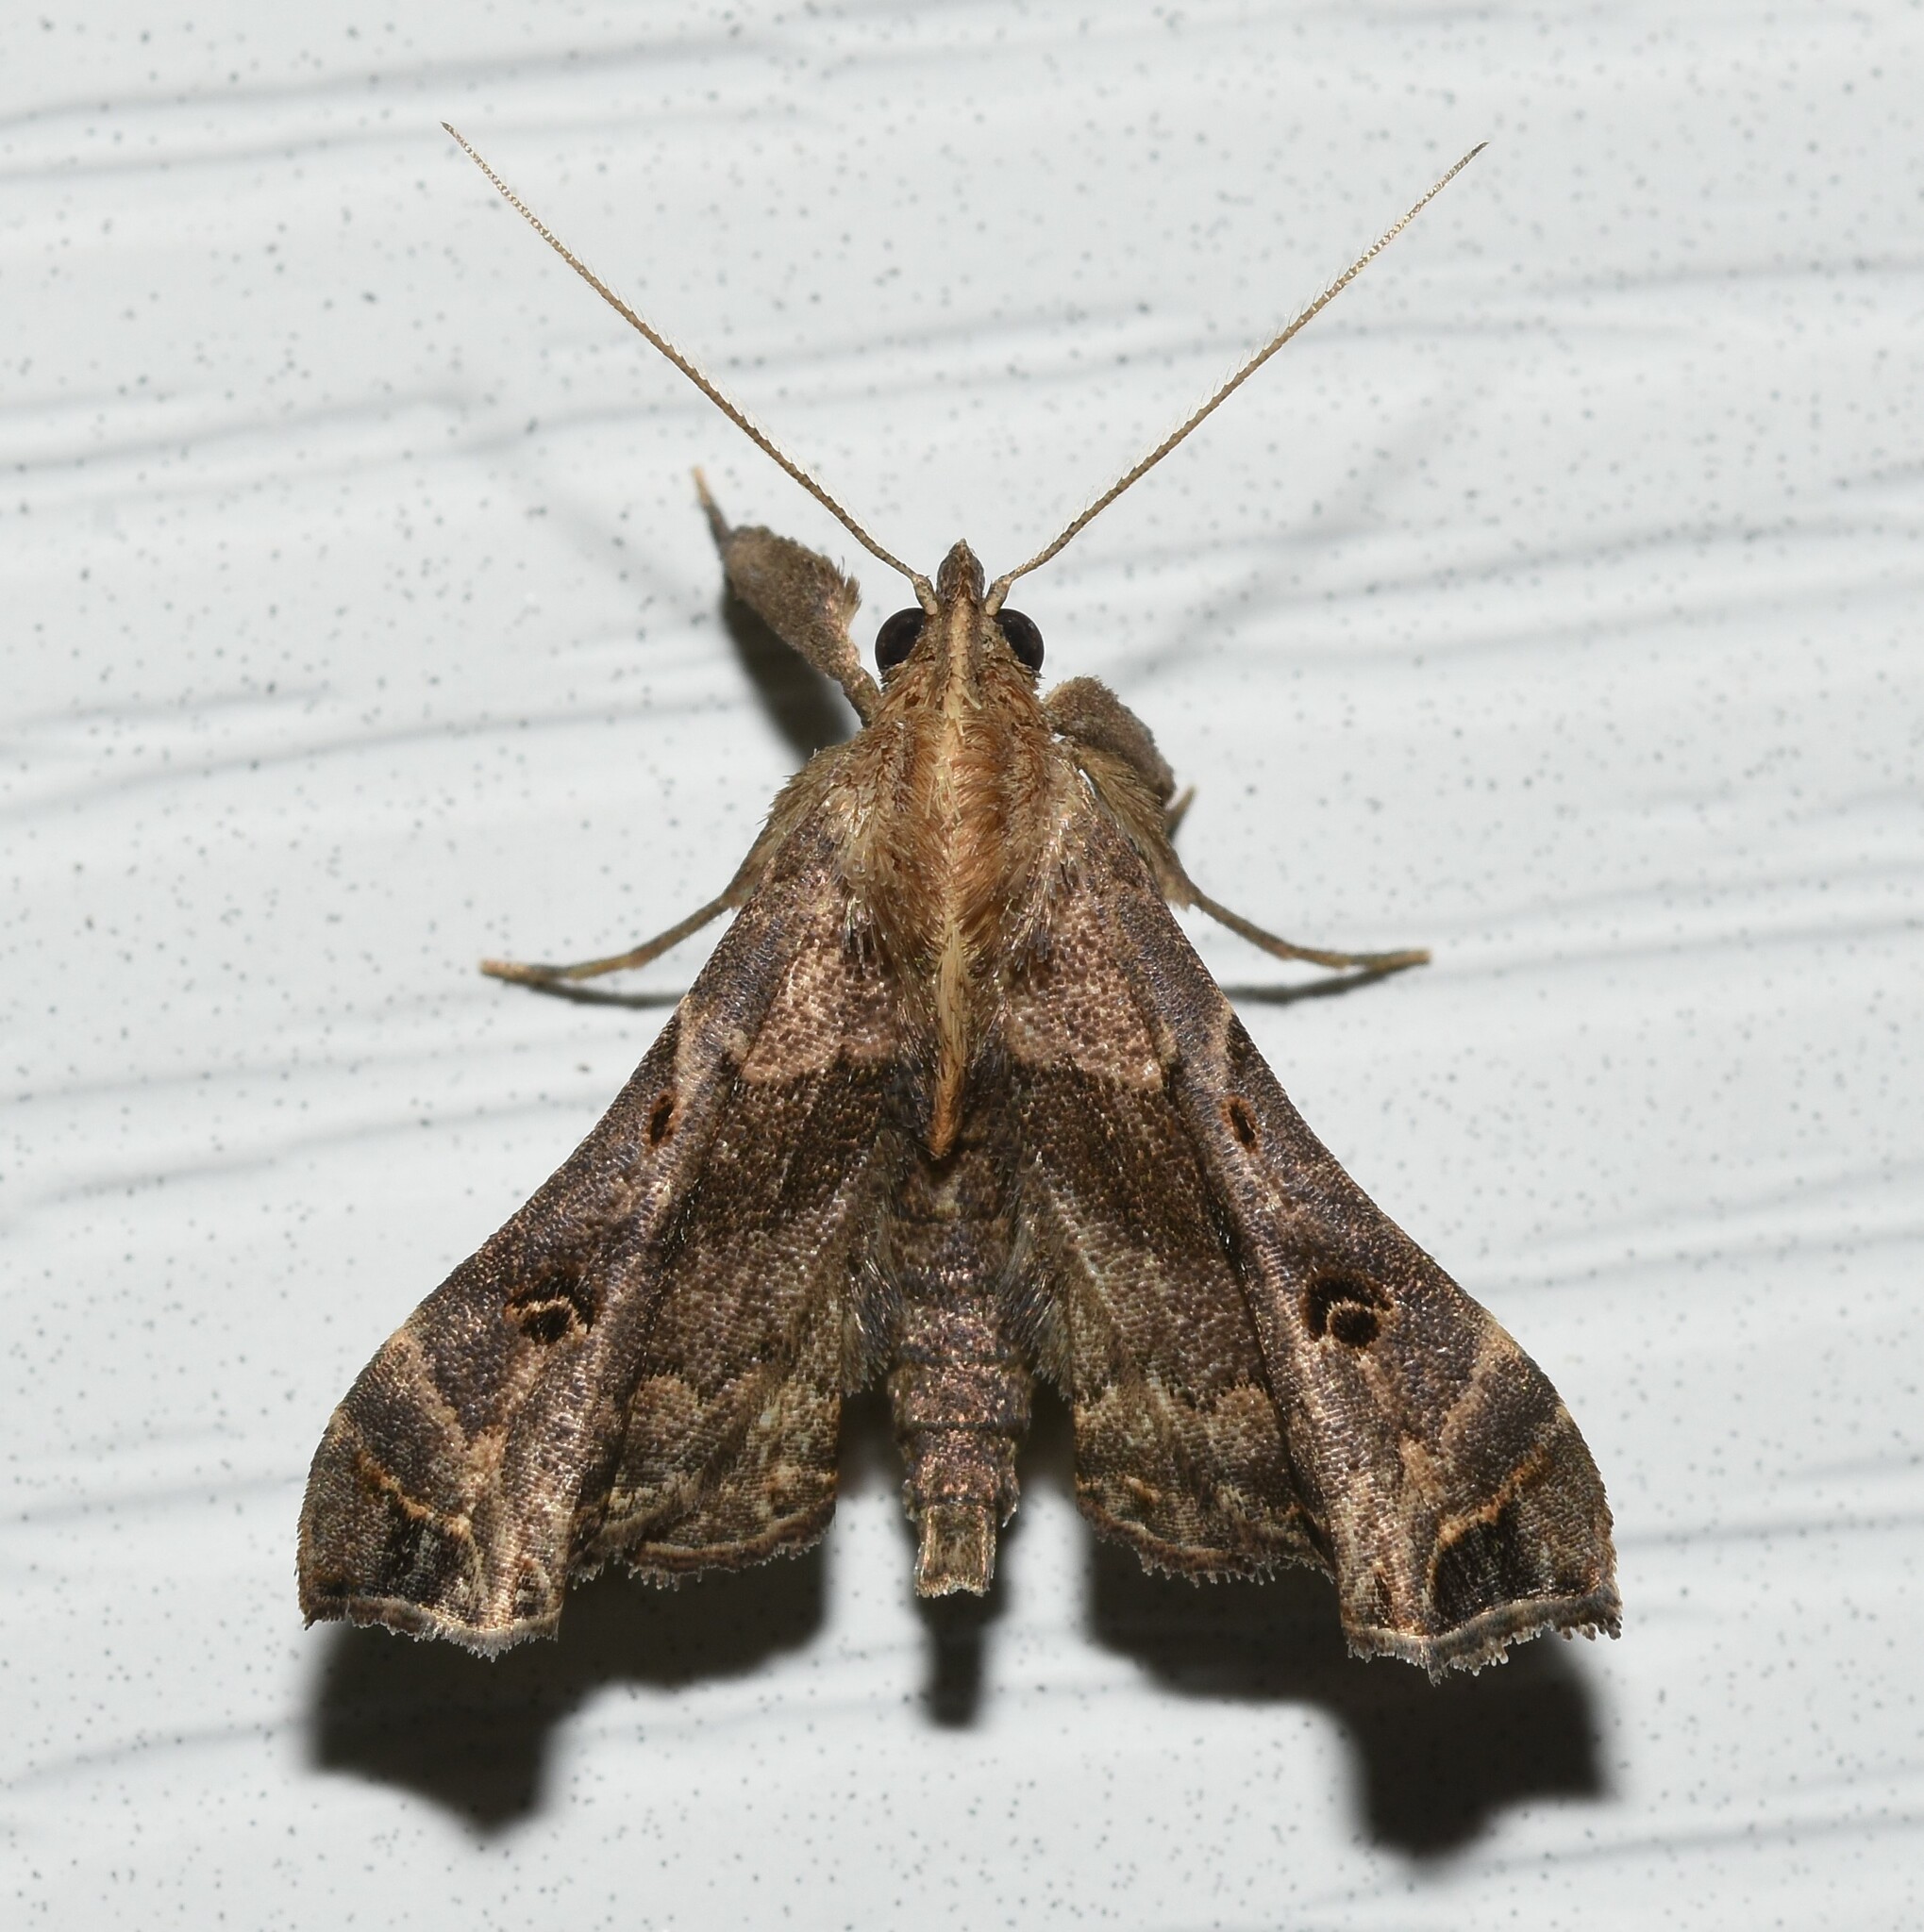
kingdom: Animalia
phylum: Arthropoda
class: Insecta
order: Lepidoptera
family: Erebidae
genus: Palthis
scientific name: Palthis asopialis
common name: Faint-spotted palthis moth
